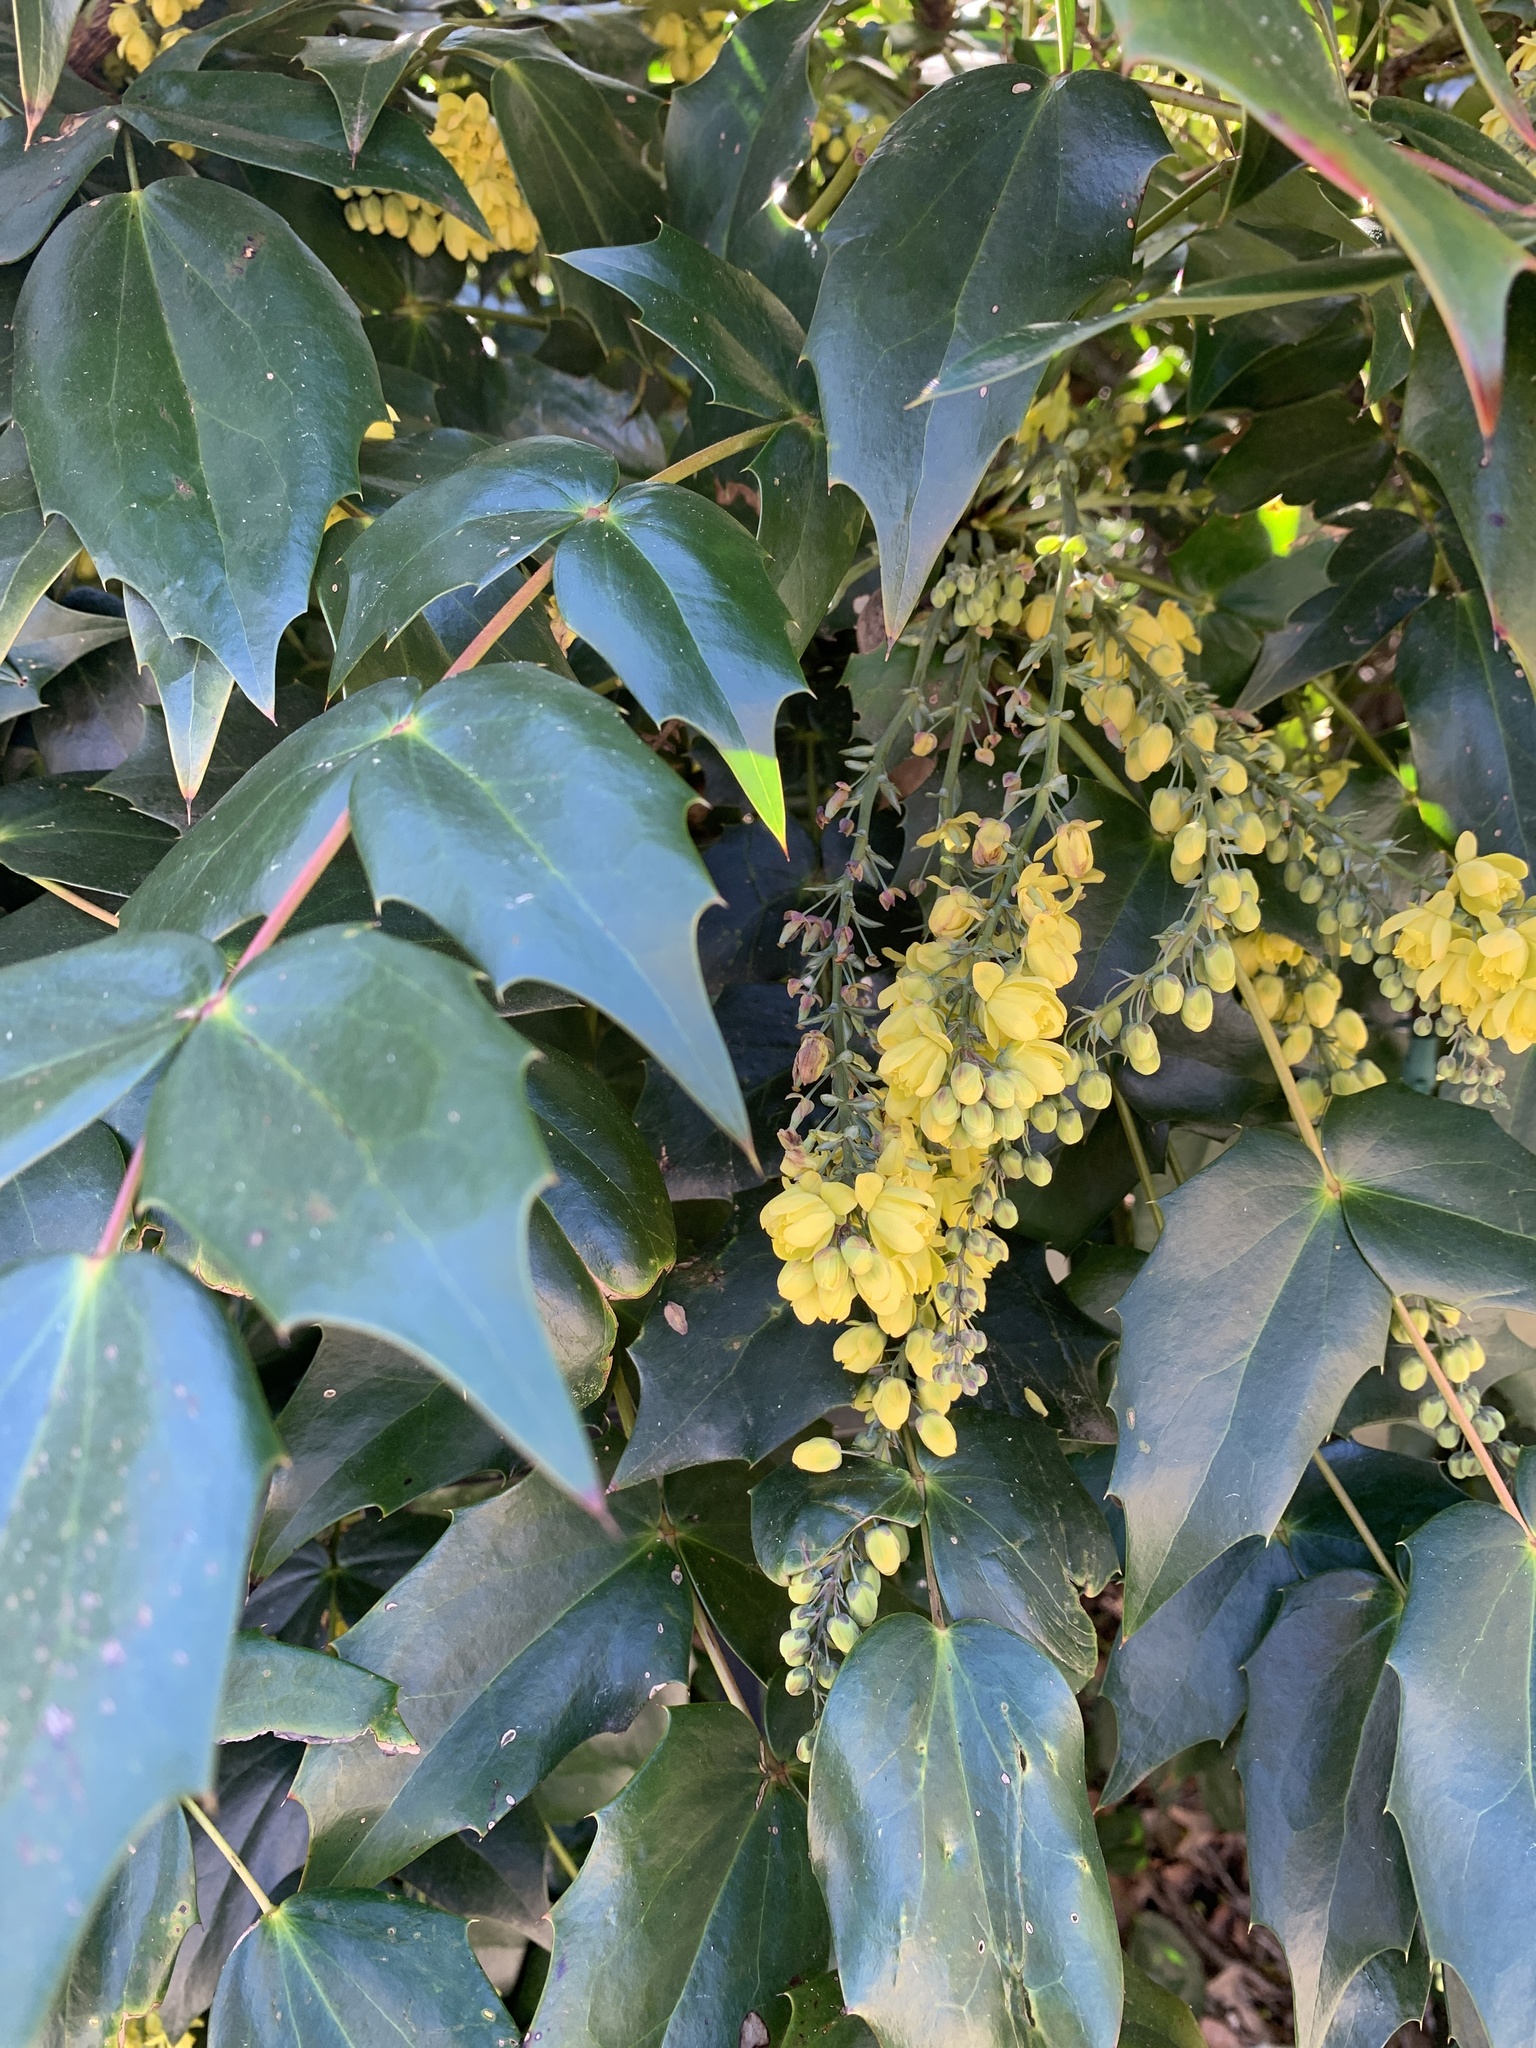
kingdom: Plantae
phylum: Tracheophyta
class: Magnoliopsida
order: Ranunculales
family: Berberidaceae
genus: Mahonia
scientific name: Mahonia bealei
